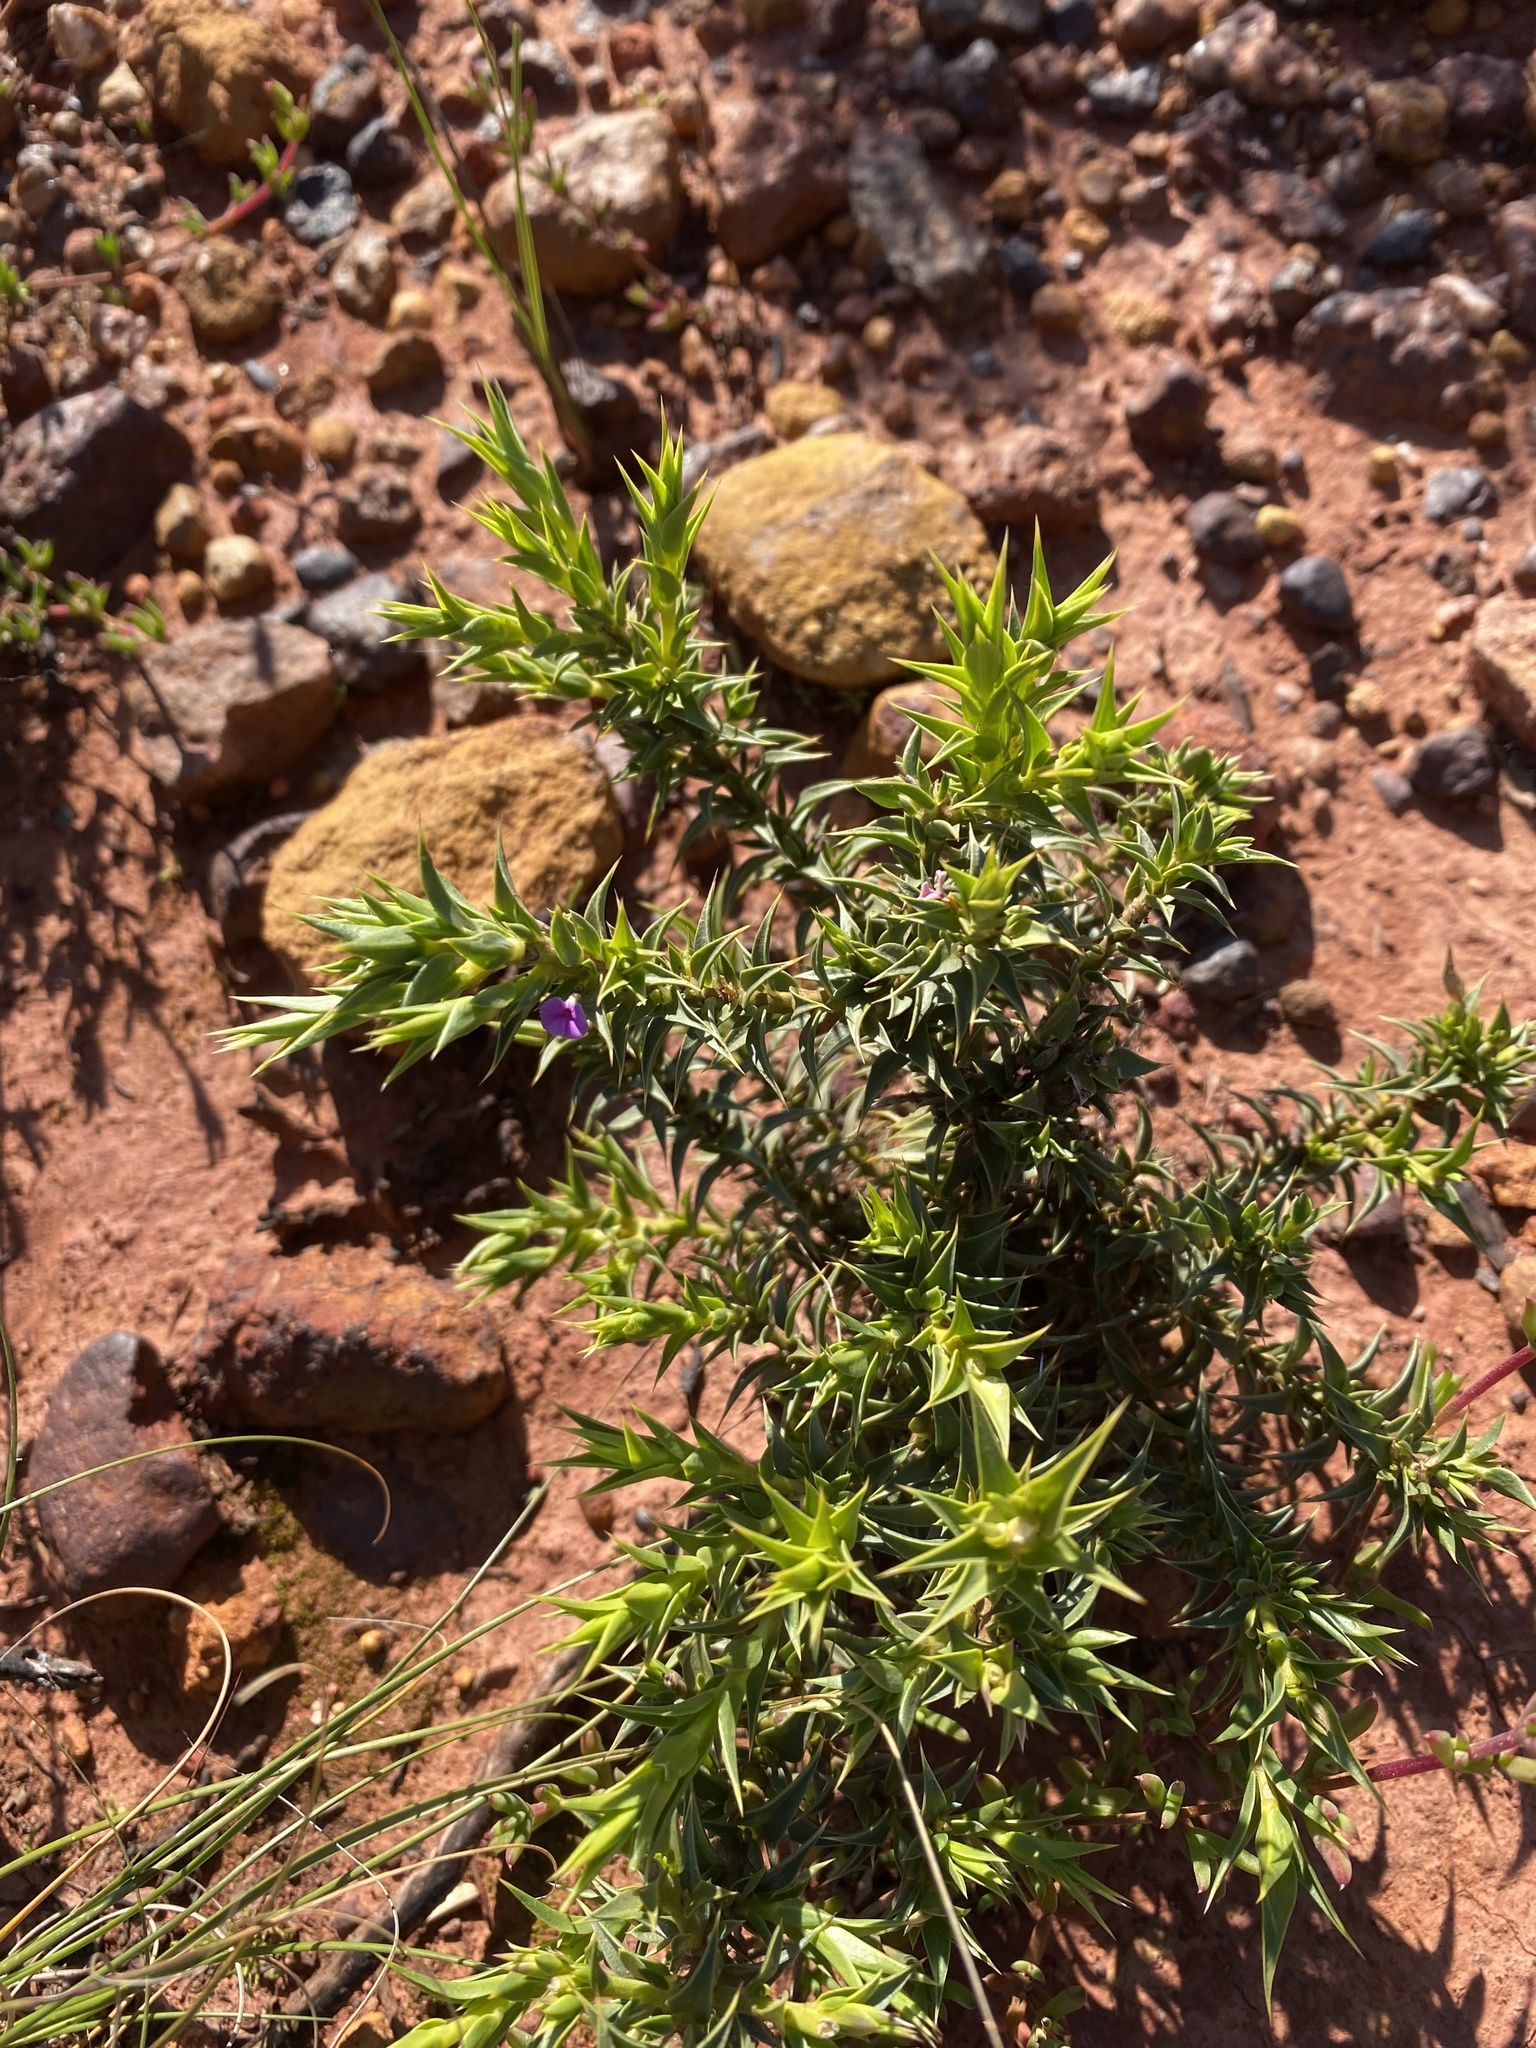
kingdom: Plantae
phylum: Tracheophyta
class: Magnoliopsida
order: Fabales
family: Polygalaceae
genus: Muraltia
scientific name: Muraltia cliffortiifolia
